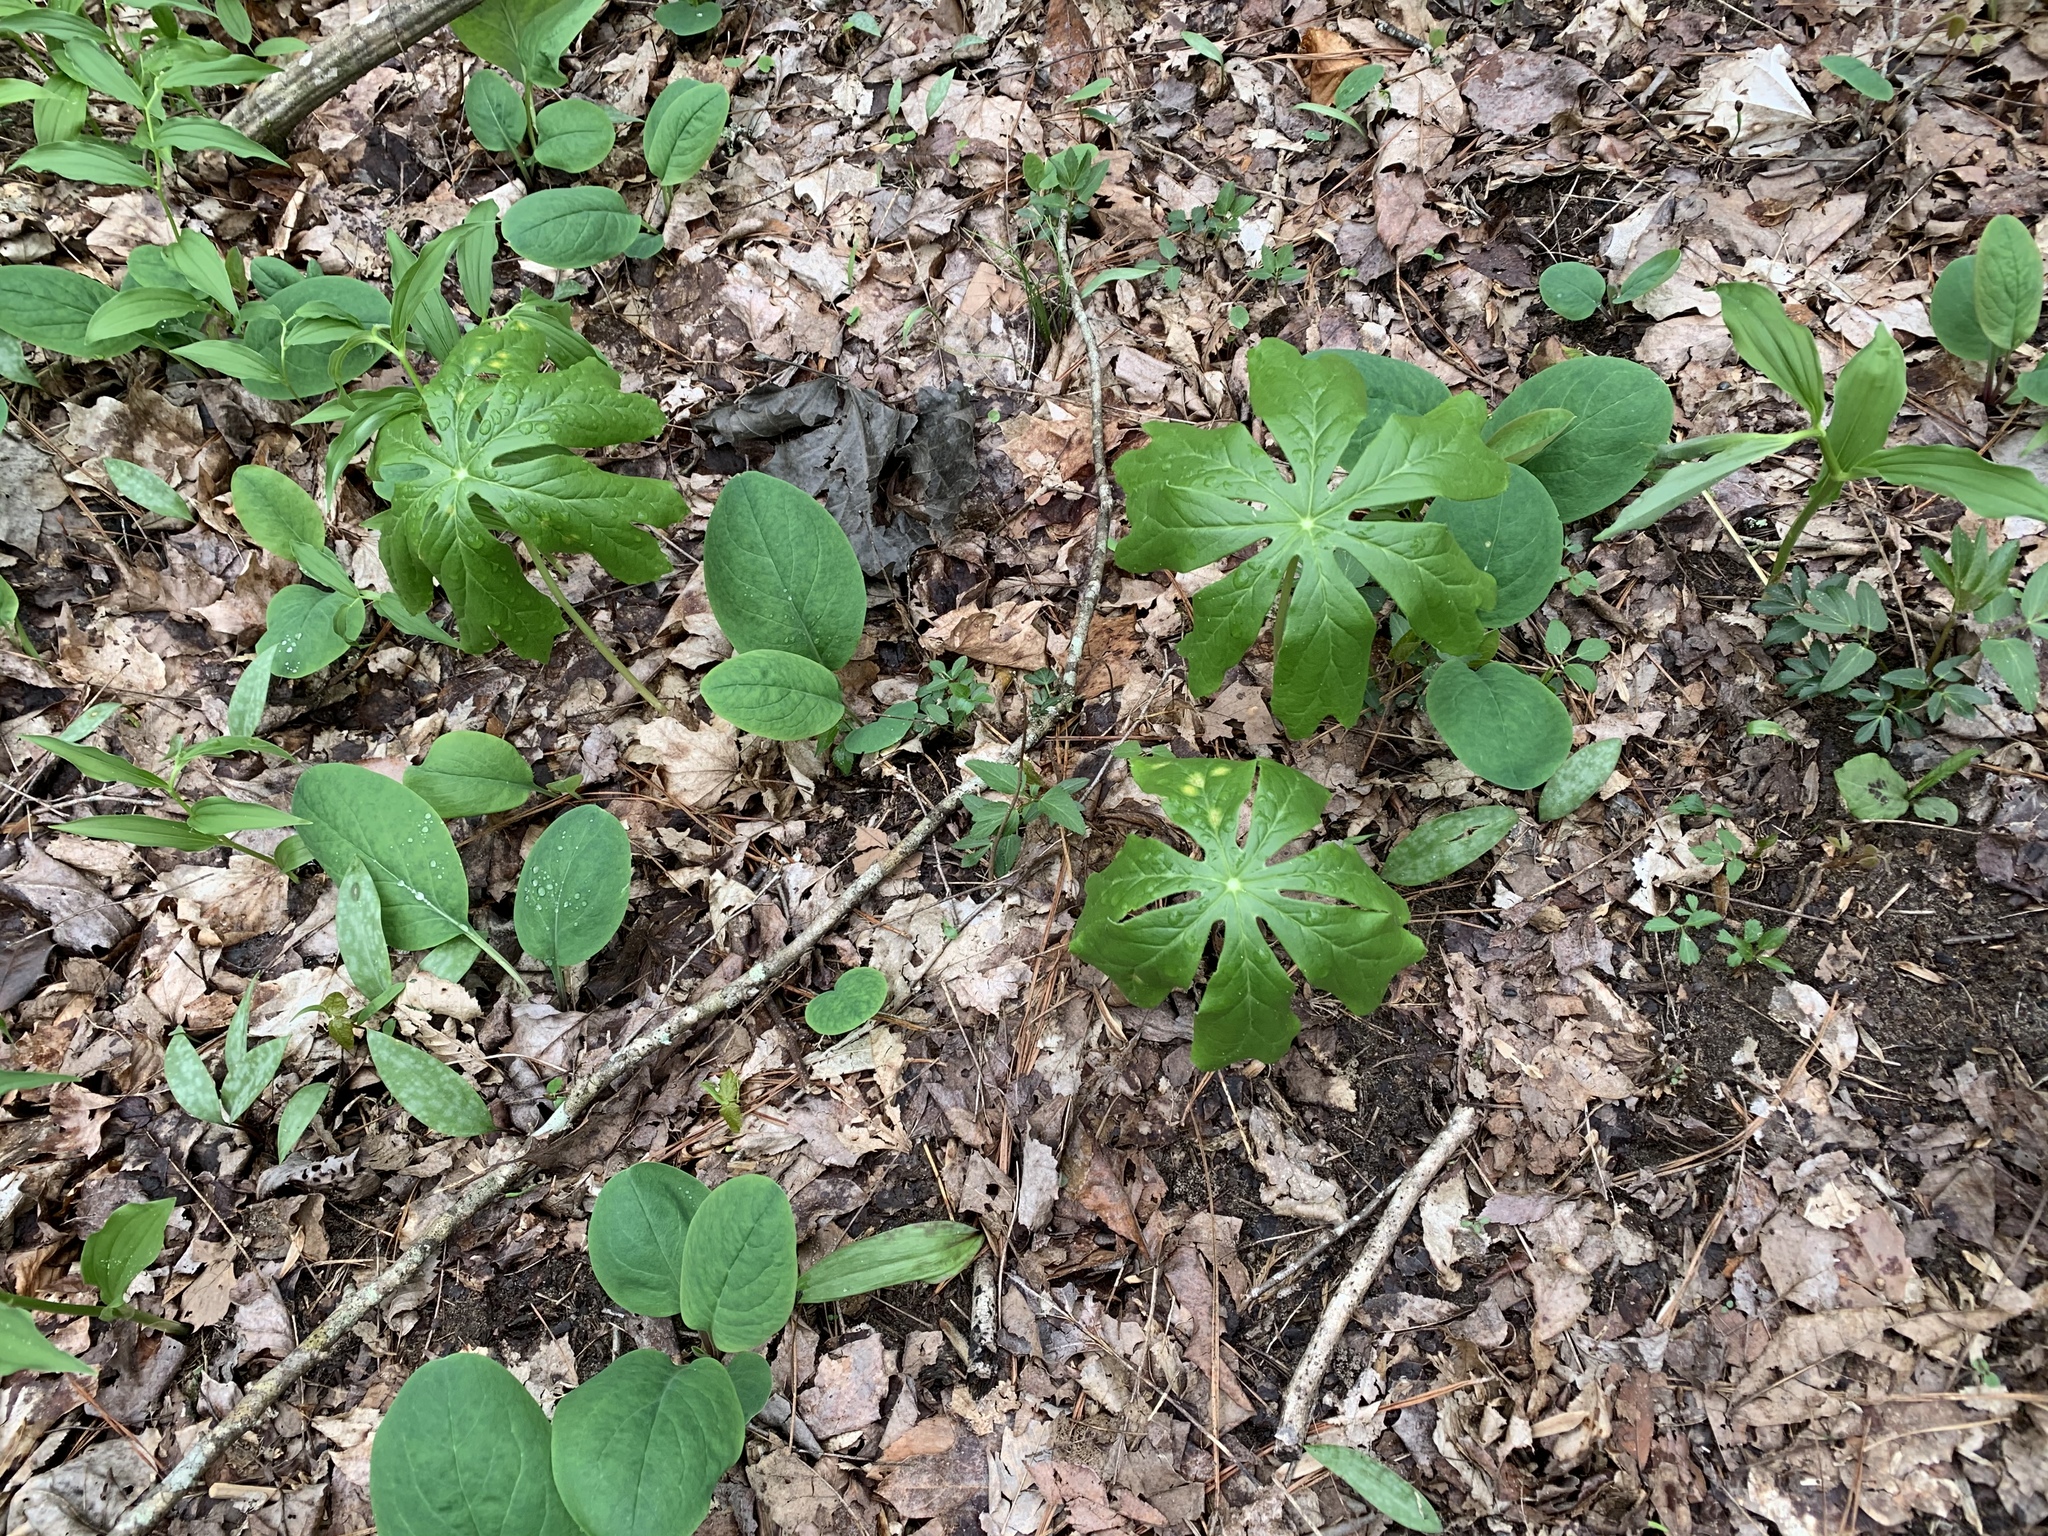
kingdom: Plantae
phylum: Tracheophyta
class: Magnoliopsida
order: Ranunculales
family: Berberidaceae
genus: Podophyllum
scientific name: Podophyllum peltatum
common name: Wild mandrake
